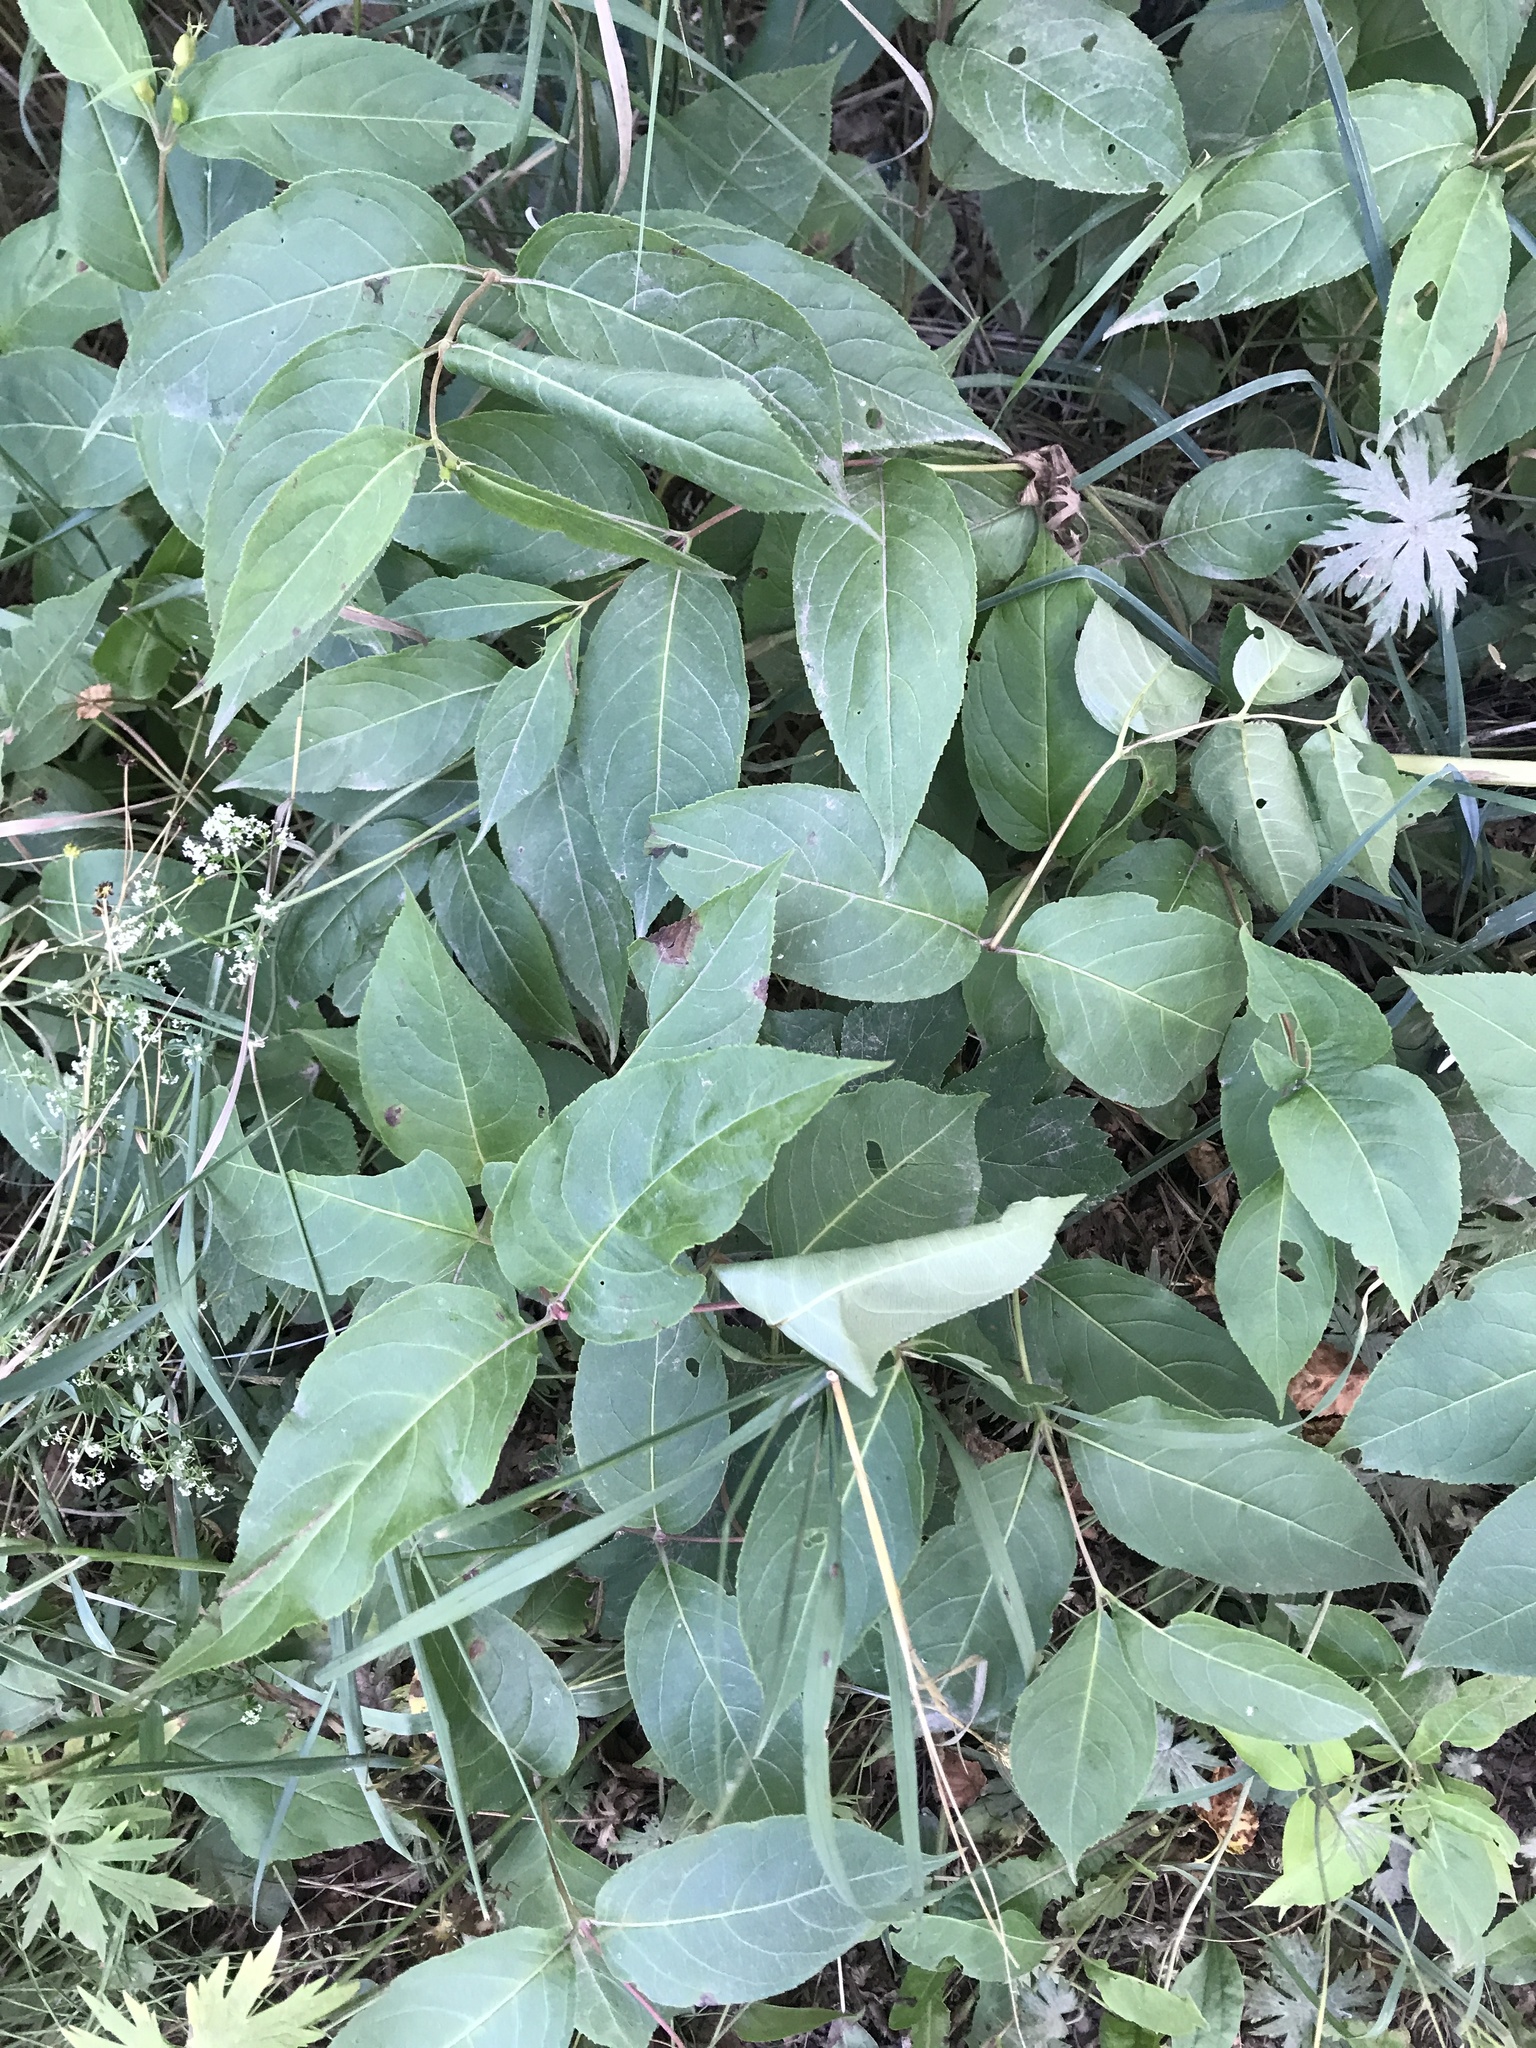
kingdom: Plantae
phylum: Tracheophyta
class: Magnoliopsida
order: Dipsacales
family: Caprifoliaceae
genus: Diervilla
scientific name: Diervilla lonicera
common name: Bush-honeysuckle
